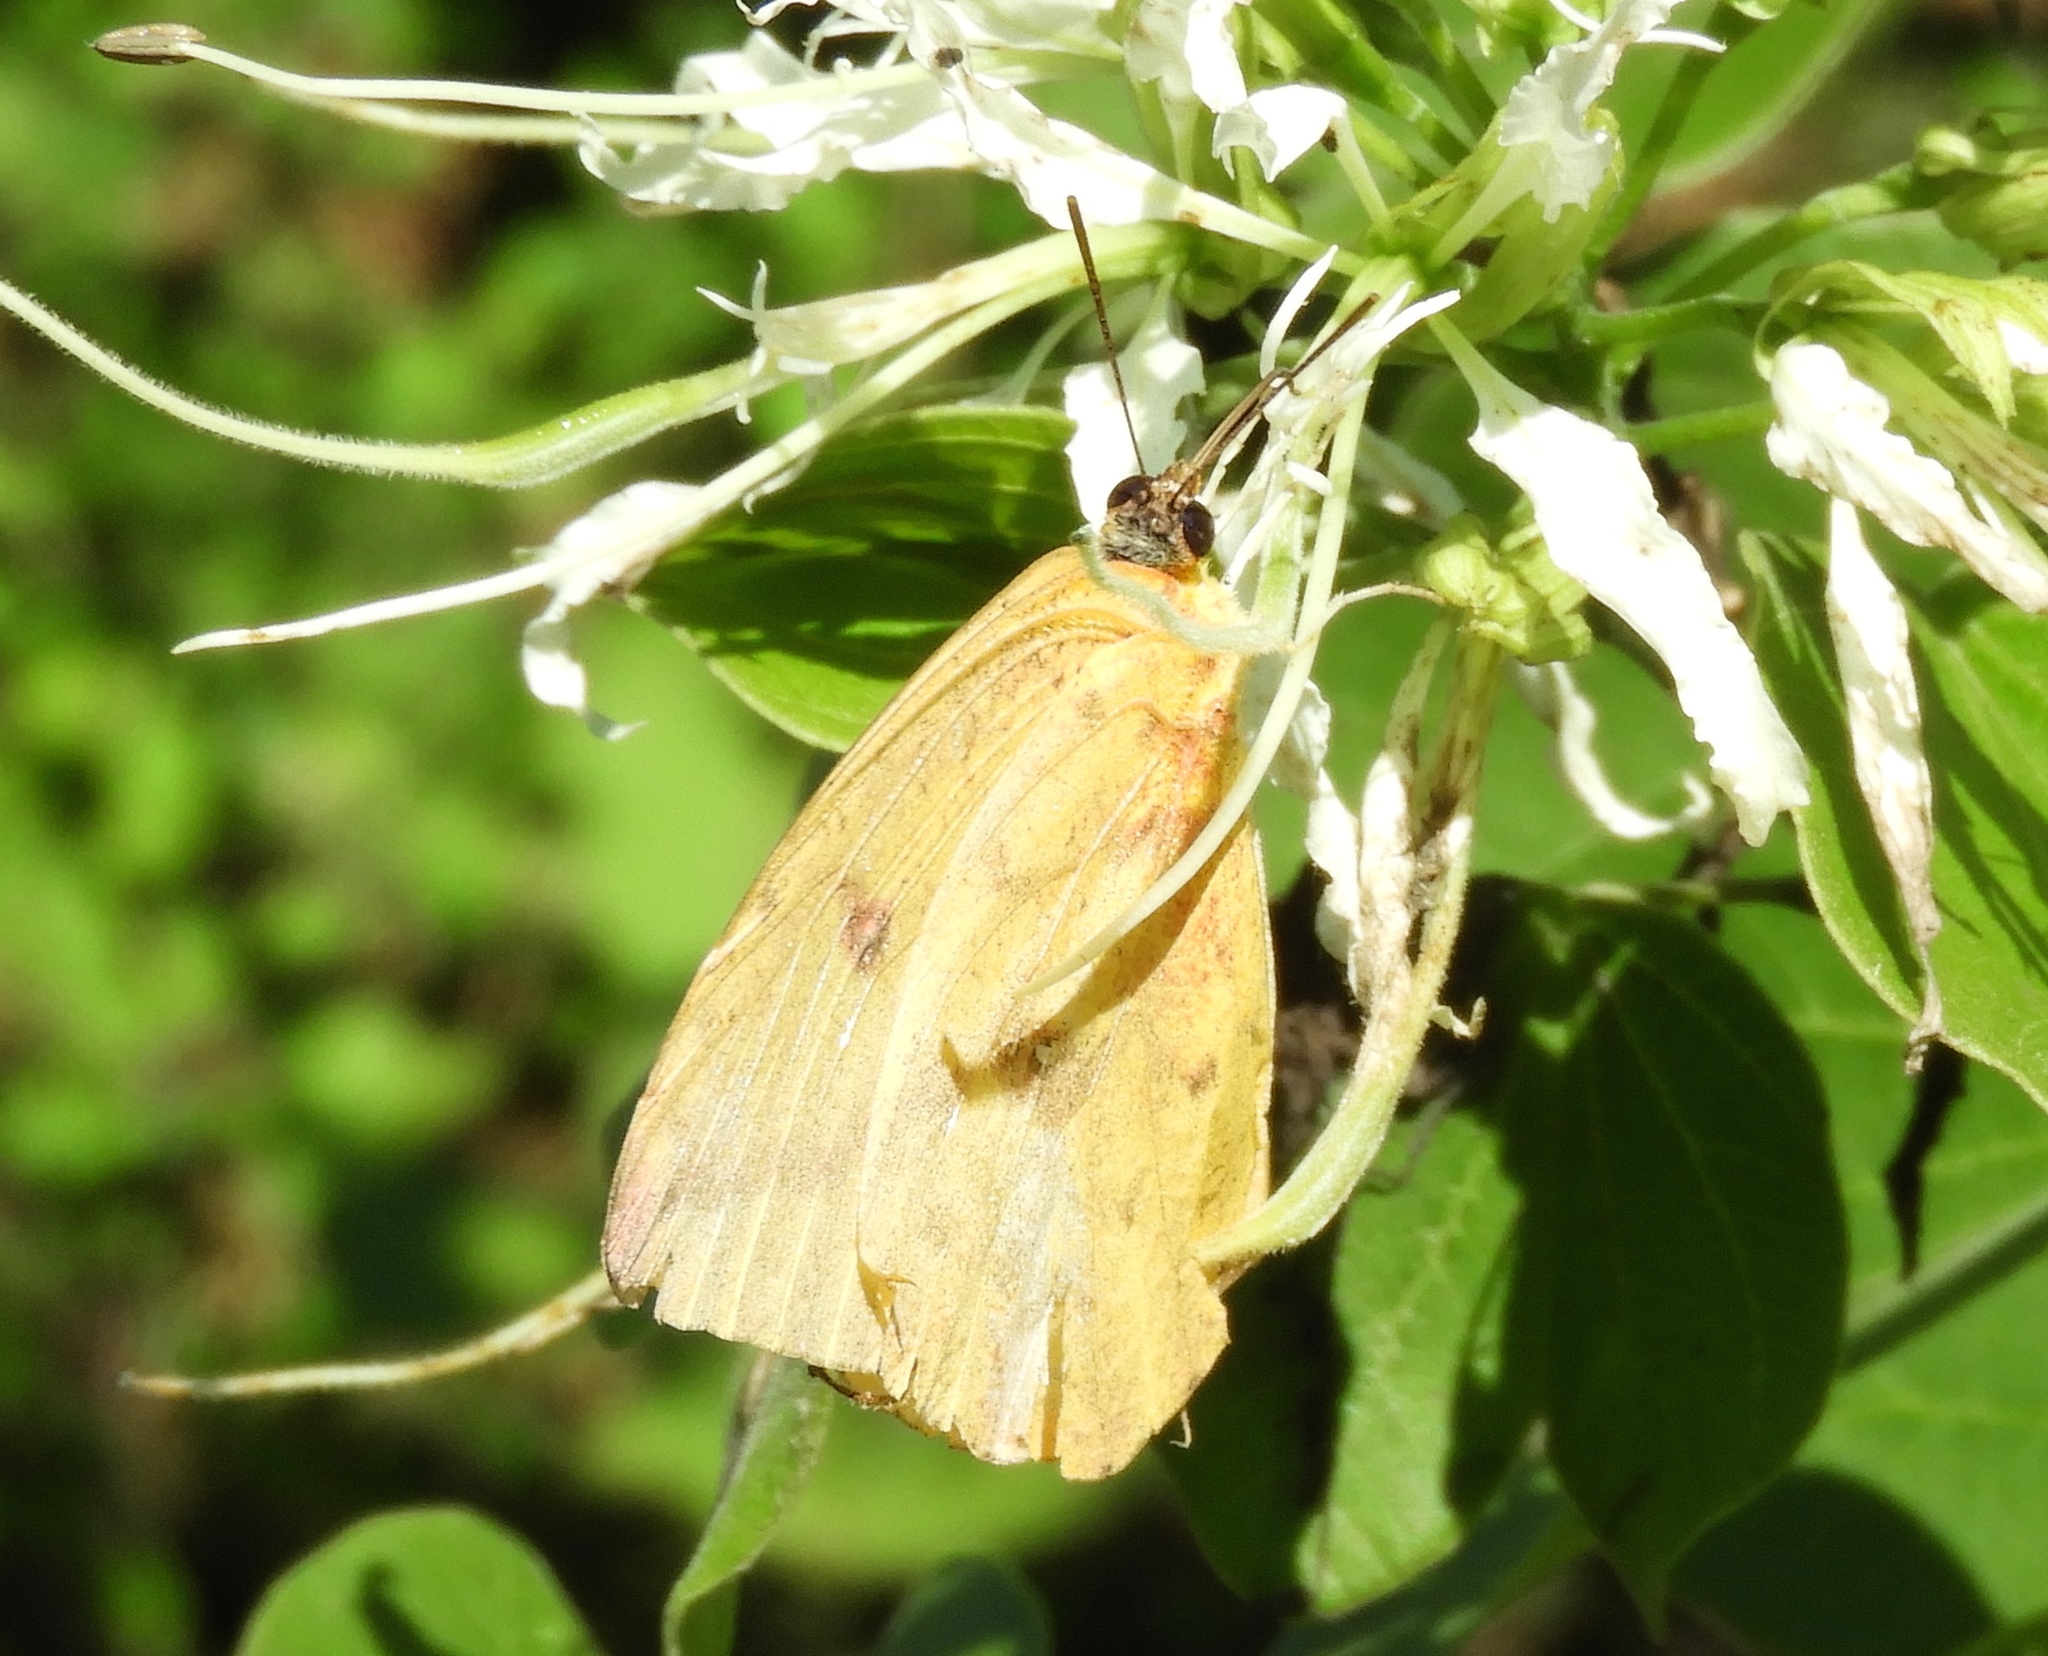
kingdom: Animalia
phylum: Arthropoda
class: Insecta
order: Lepidoptera
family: Pieridae
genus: Phoebis
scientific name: Phoebis agarithe
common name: Large orange sulphur
